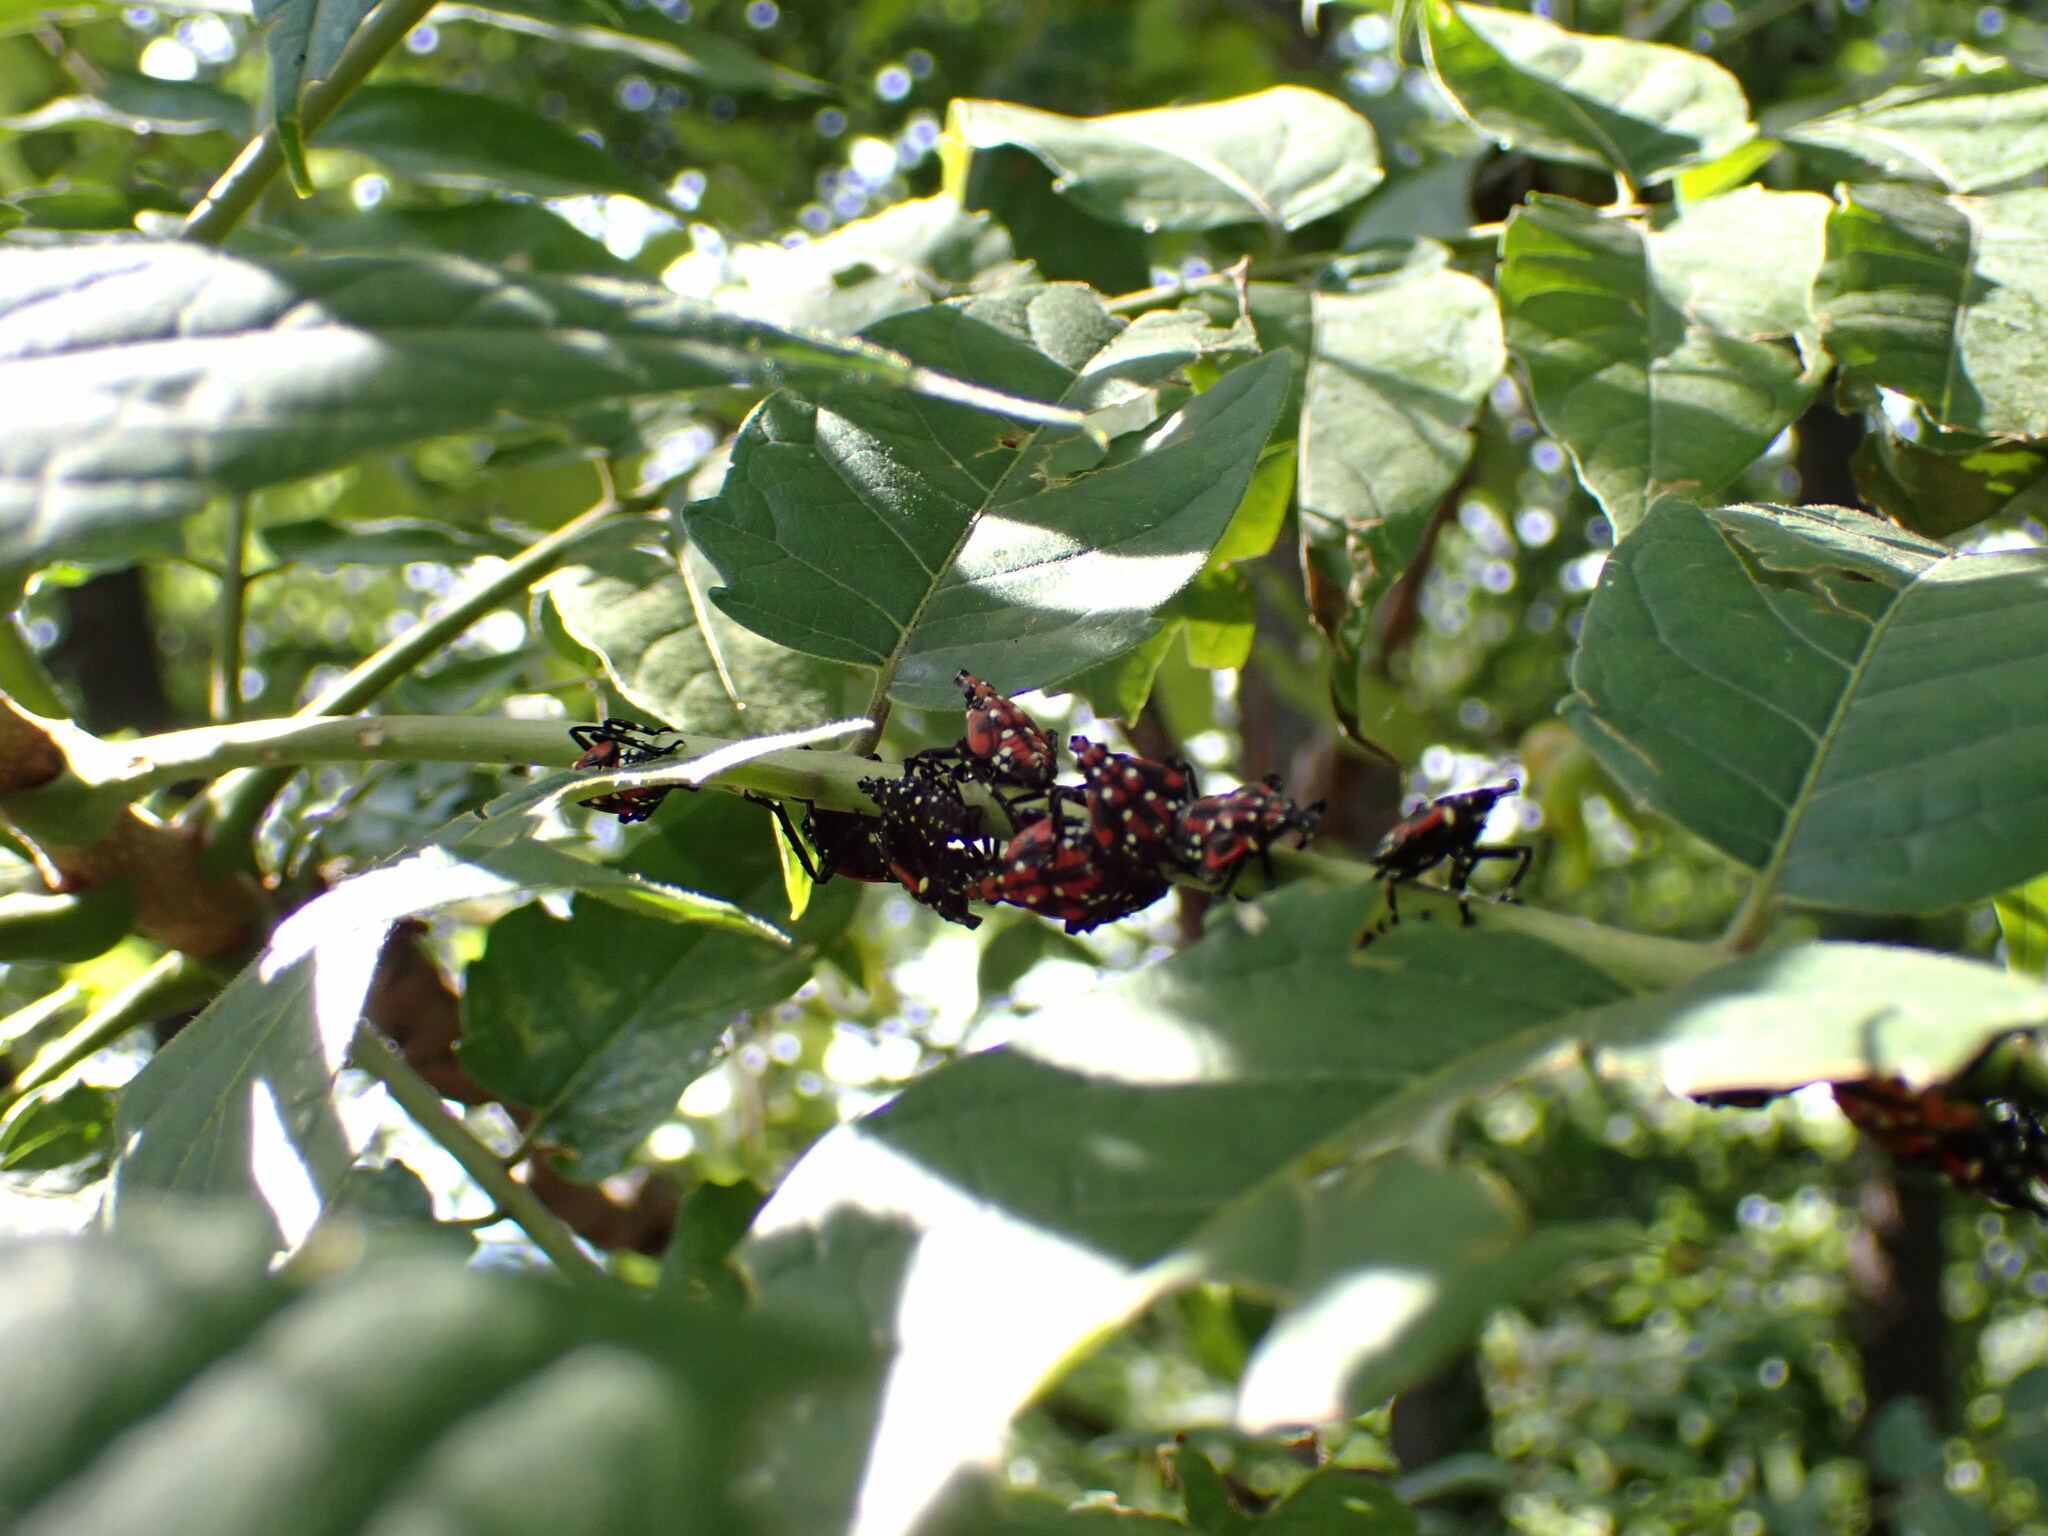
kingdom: Animalia
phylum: Arthropoda
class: Insecta
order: Hemiptera
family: Fulgoridae
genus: Lycorma
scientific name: Lycorma delicatula
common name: Spotted lanternfly
